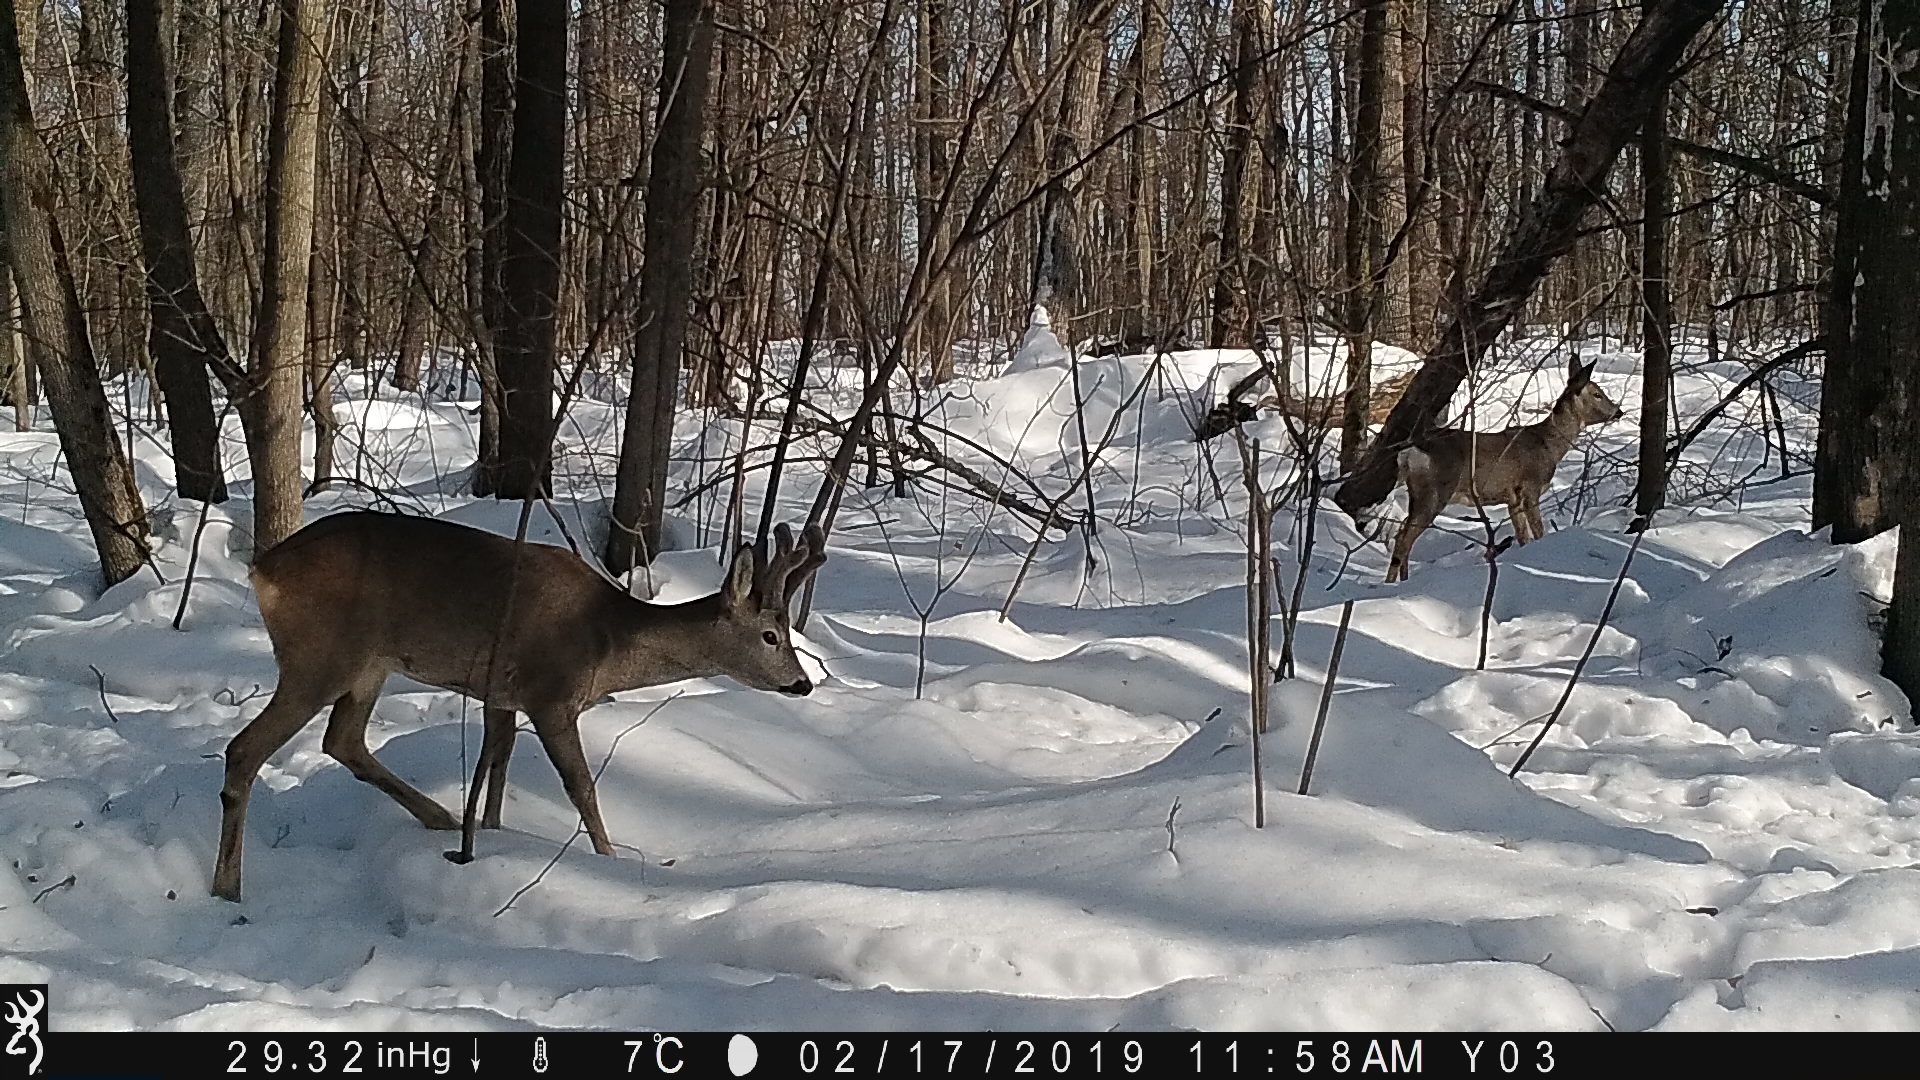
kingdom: Animalia
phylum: Chordata
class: Mammalia
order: Artiodactyla
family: Cervidae
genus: Capreolus
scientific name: Capreolus capreolus
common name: Western roe deer
